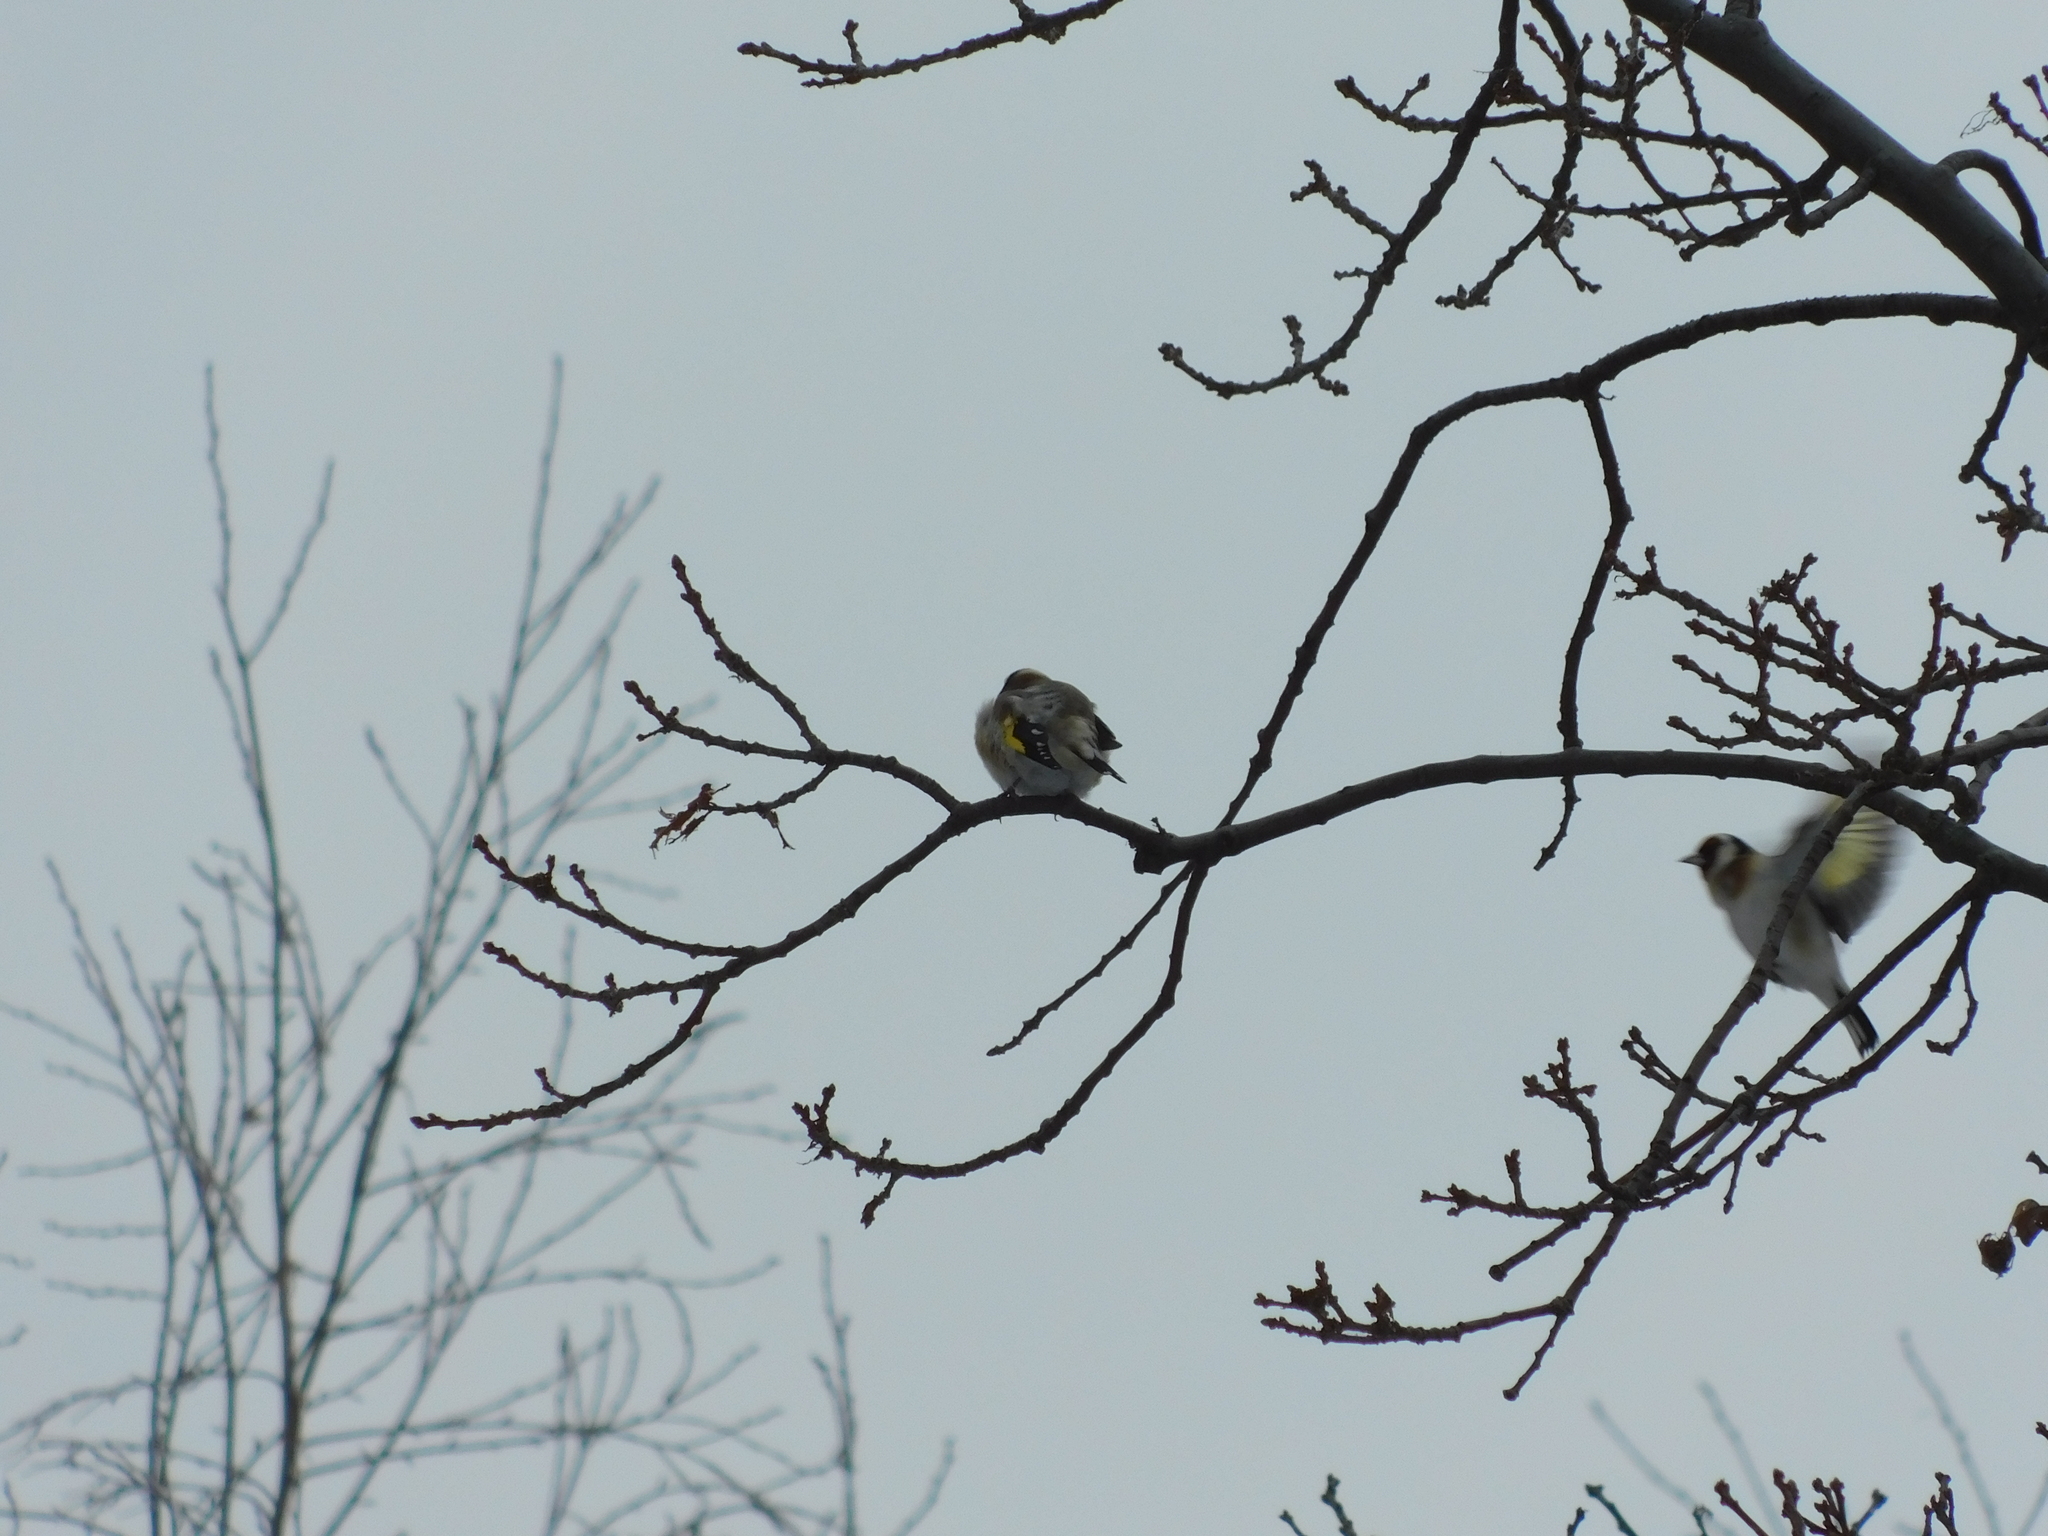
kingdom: Animalia
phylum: Chordata
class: Aves
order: Passeriformes
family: Fringillidae
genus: Carduelis
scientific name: Carduelis carduelis
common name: European goldfinch
